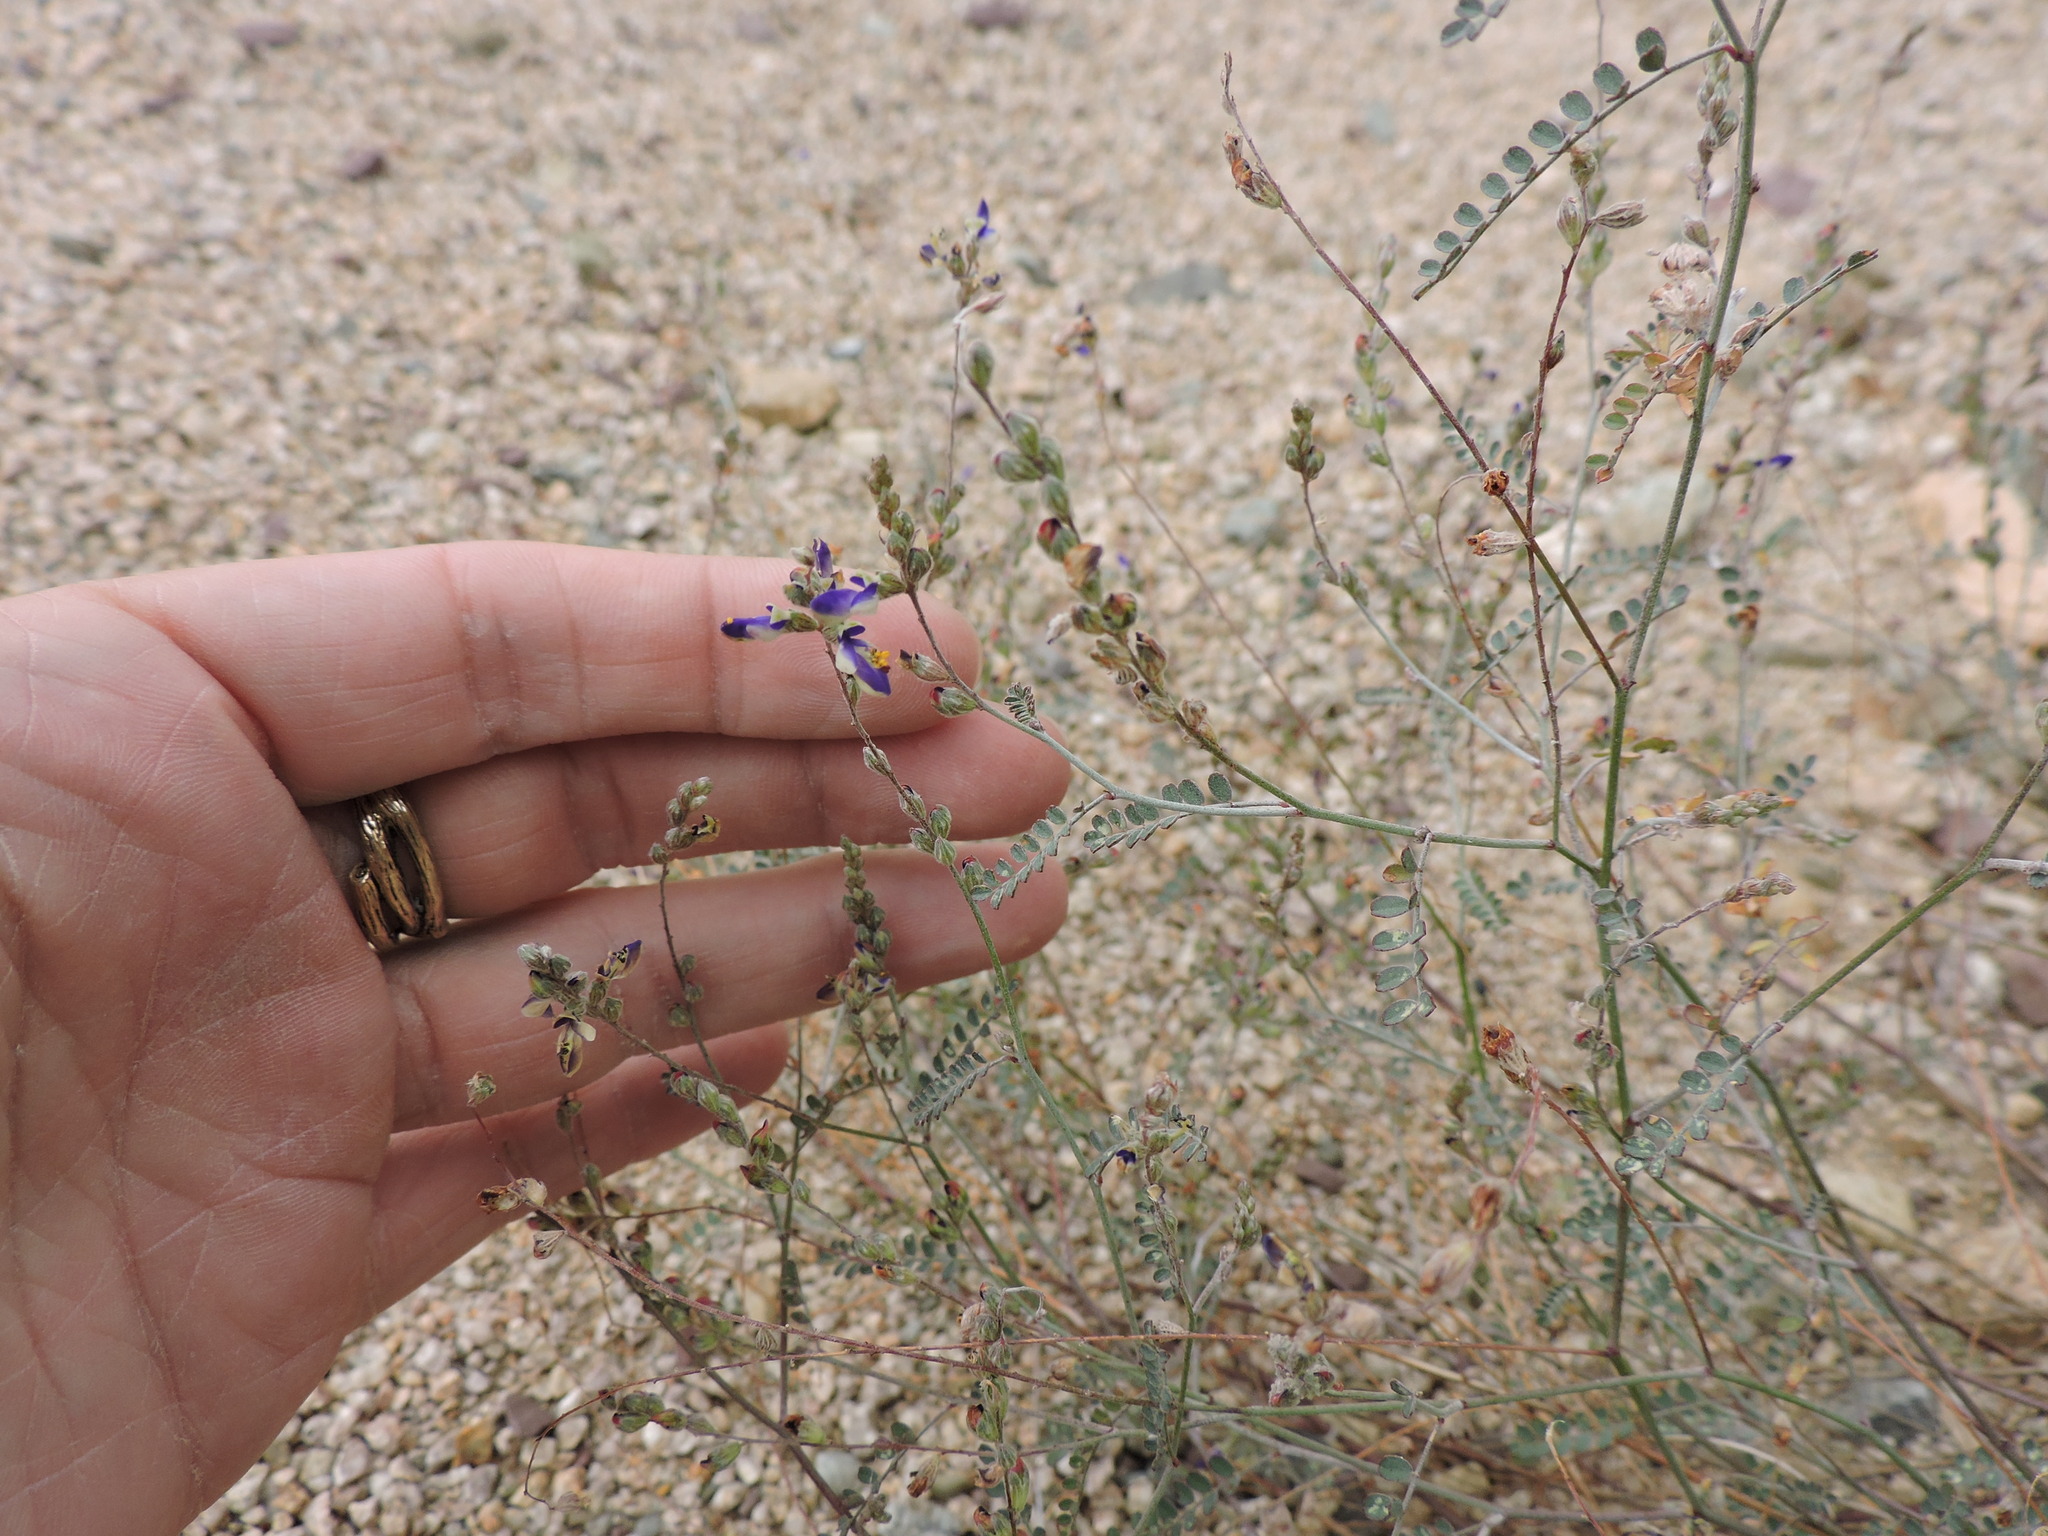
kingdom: Plantae
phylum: Tracheophyta
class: Magnoliopsida
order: Fabales
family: Fabaceae
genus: Marina
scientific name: Marina parryi
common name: Parry's marina
